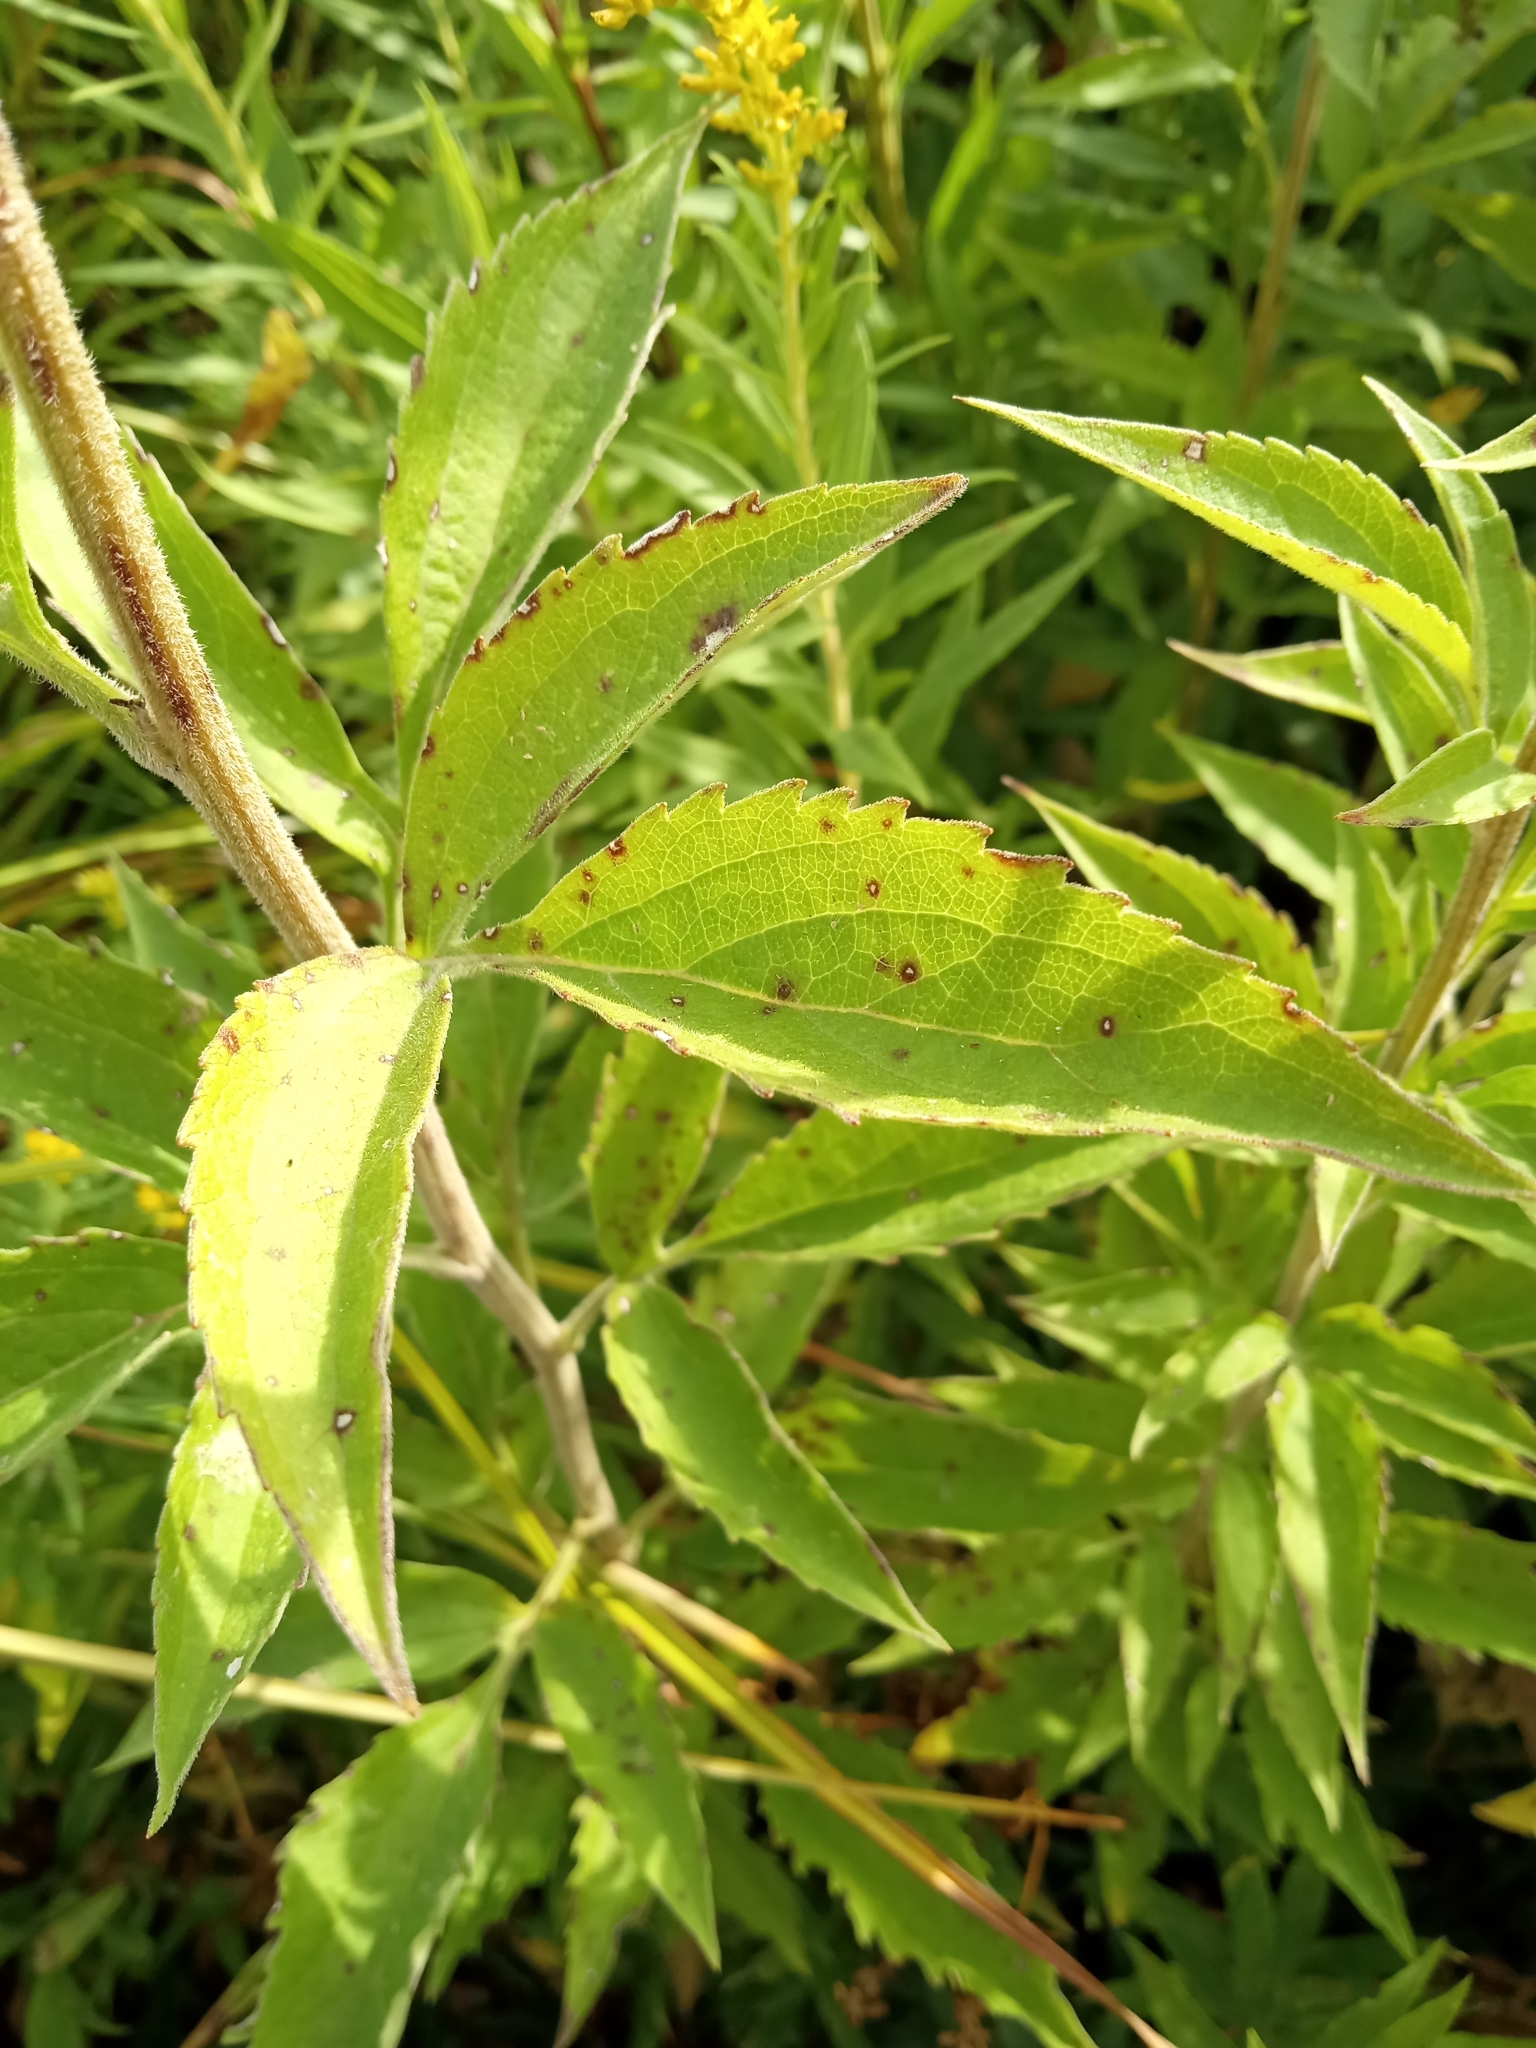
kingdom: Plantae
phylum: Tracheophyta
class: Magnoliopsida
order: Asterales
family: Asteraceae
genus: Rudbeckia
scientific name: Rudbeckia subtomentosa
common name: Sweet coneflower
